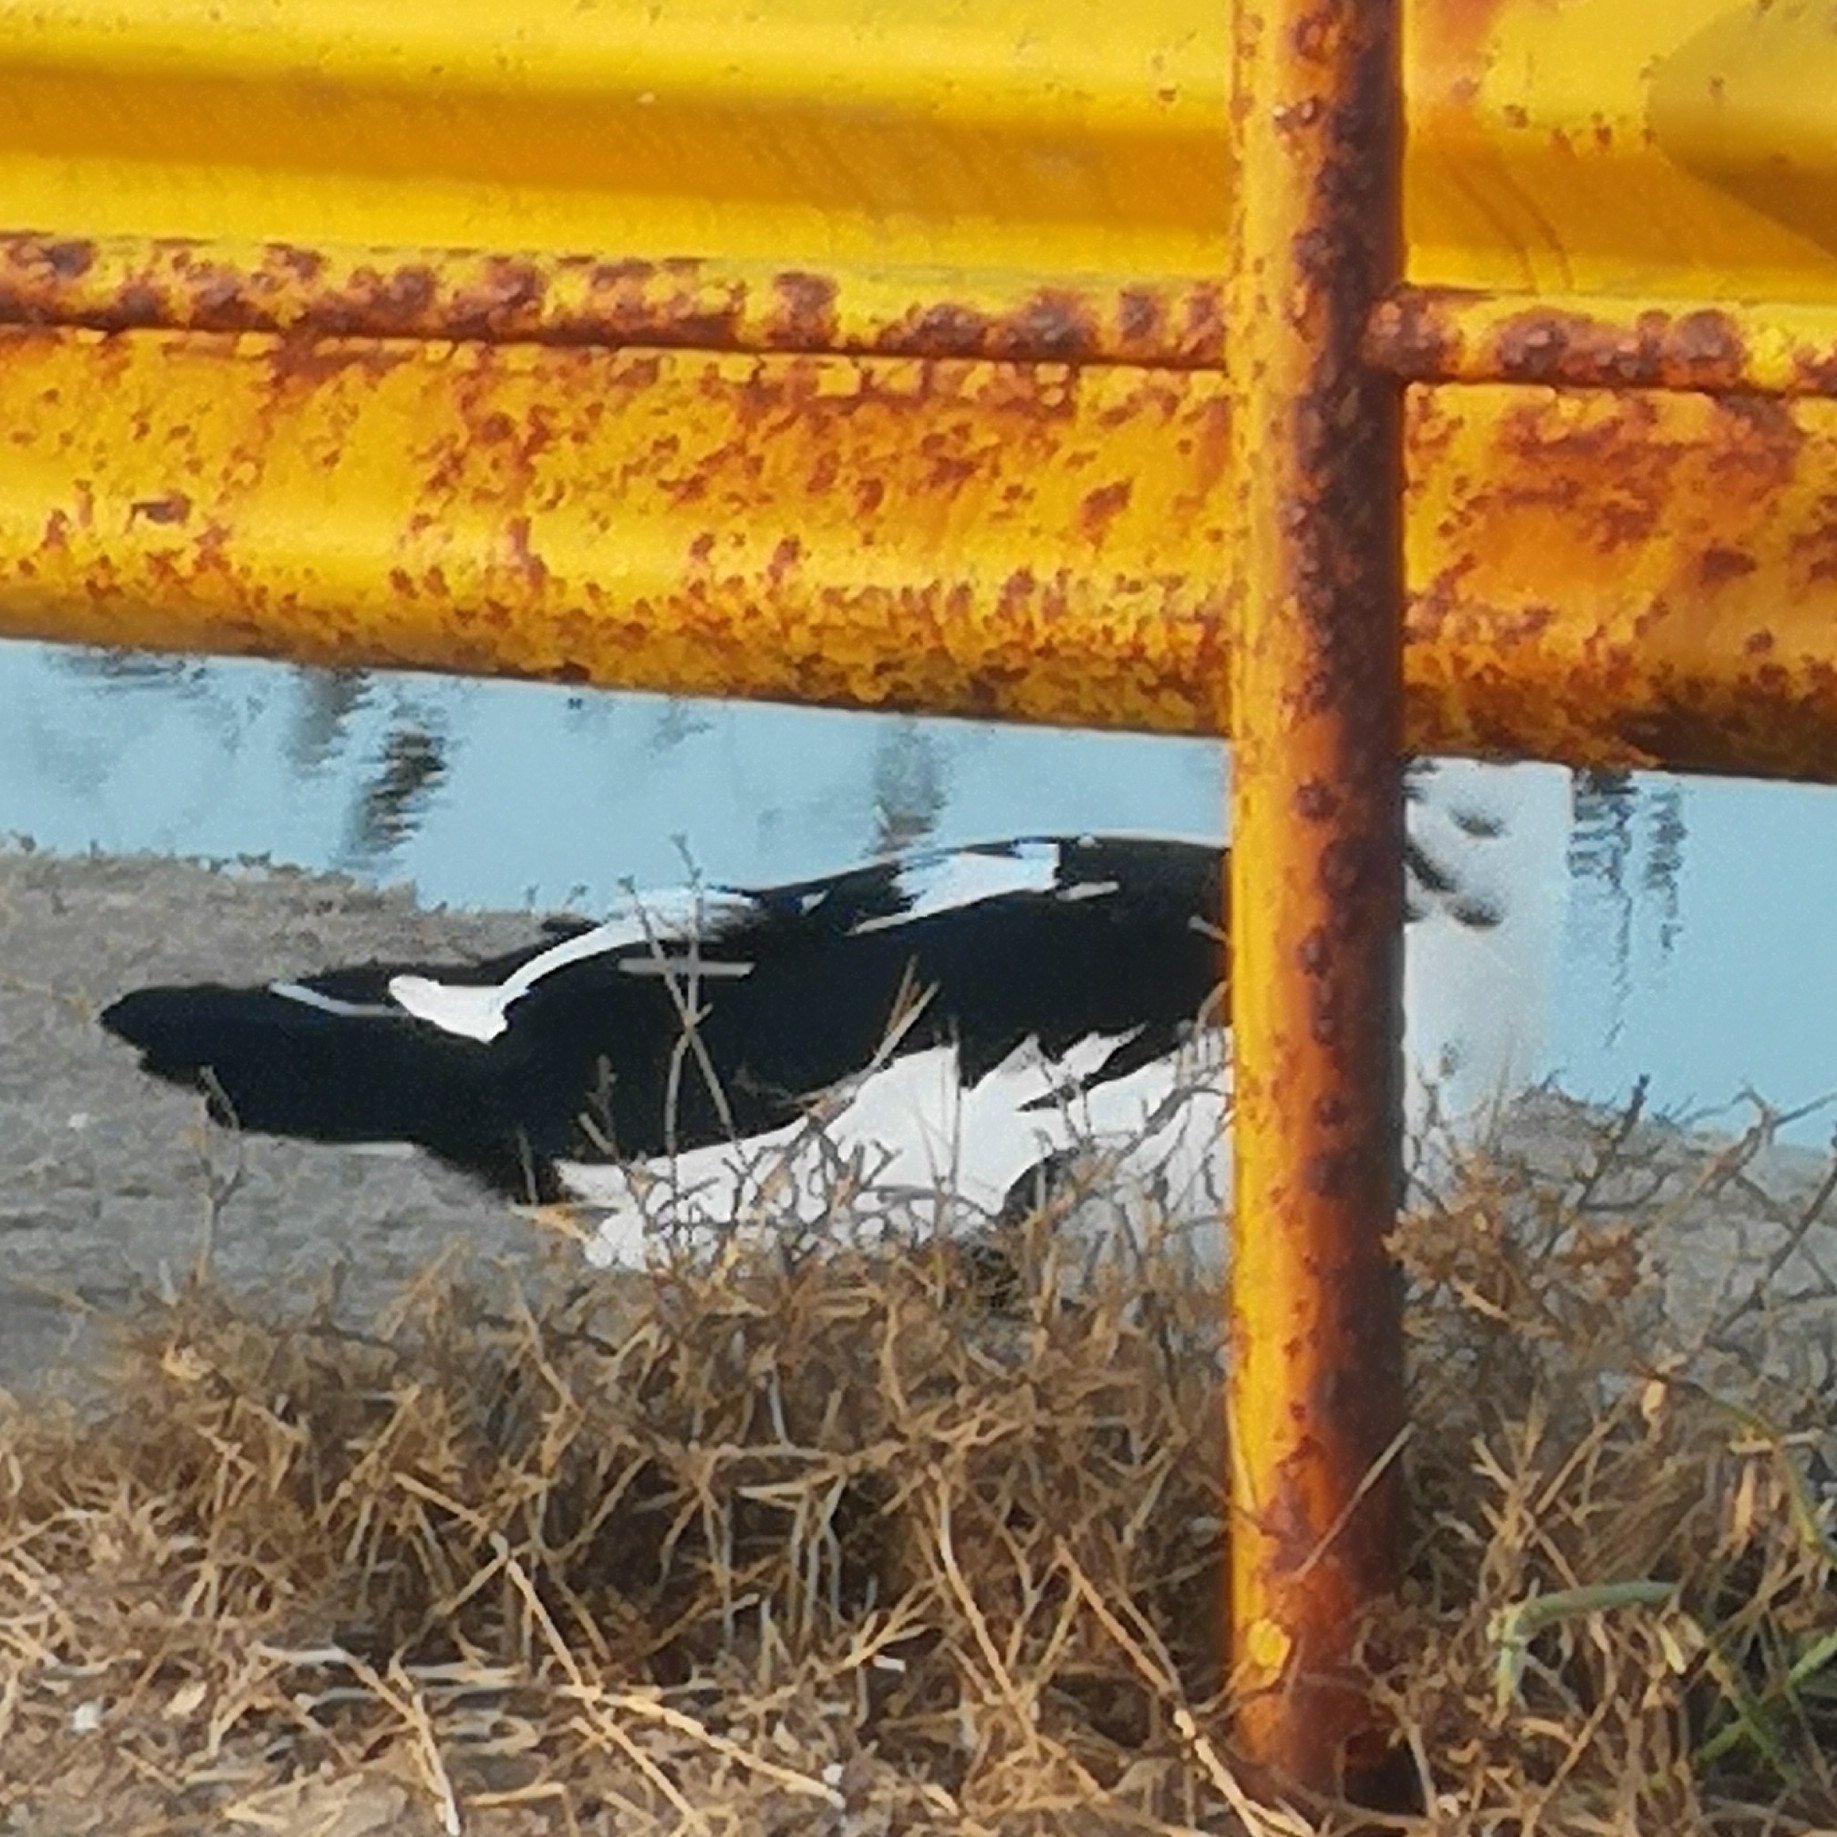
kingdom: Animalia
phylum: Chordata
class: Aves
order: Anseriformes
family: Anatidae
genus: Cairina
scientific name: Cairina moschata
